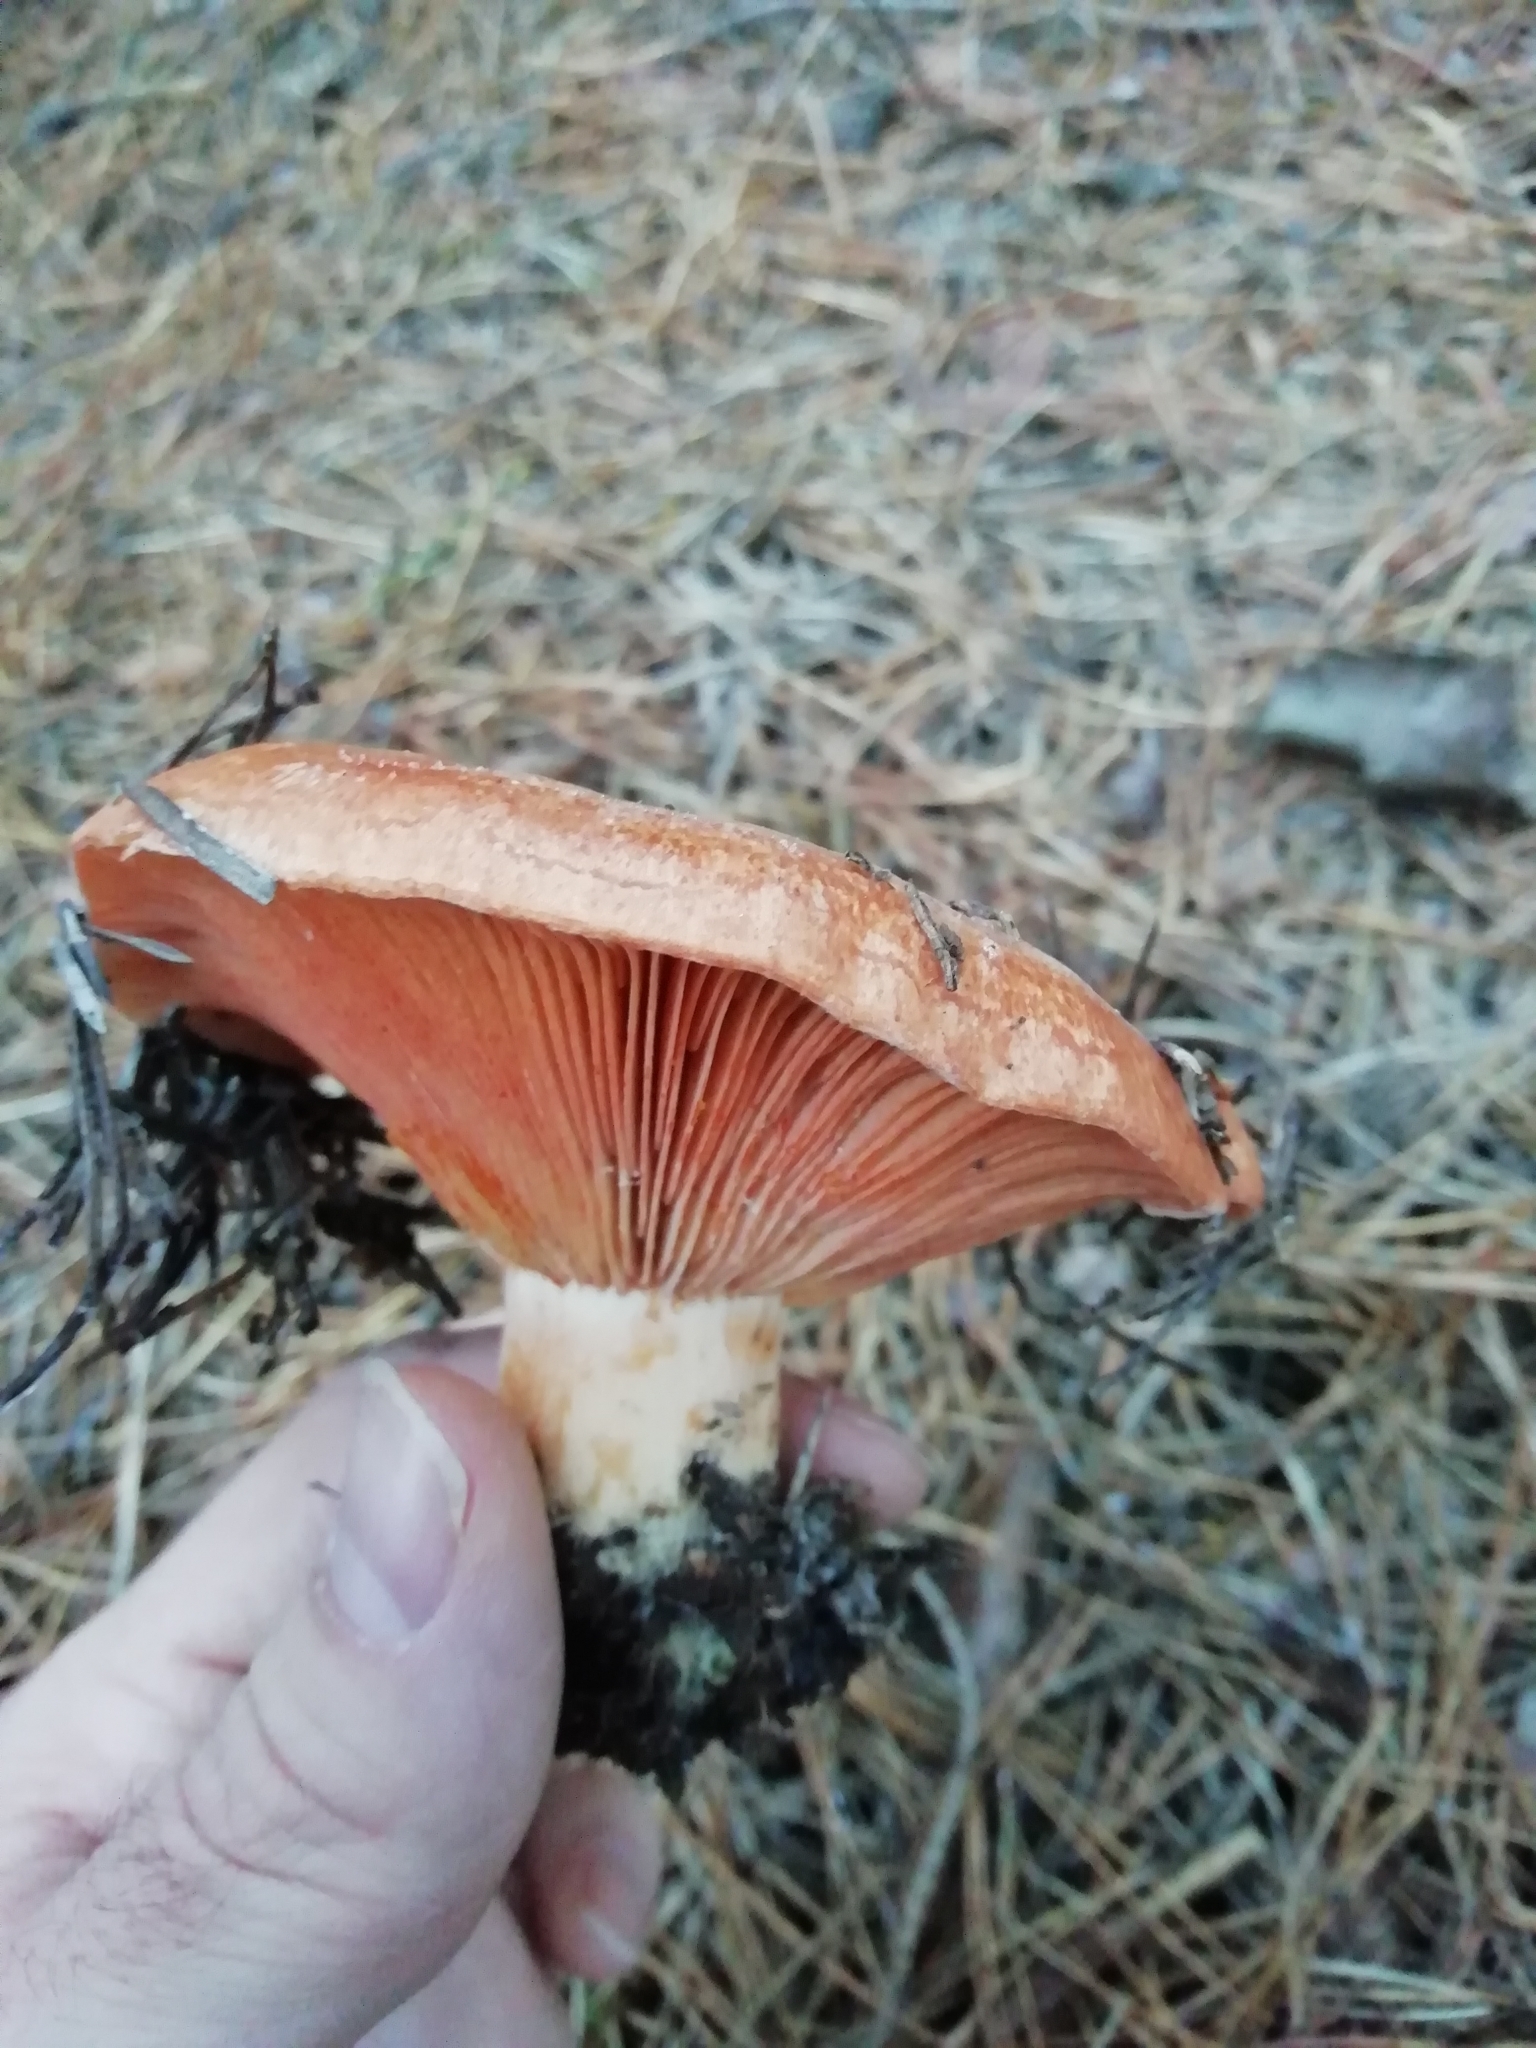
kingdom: Fungi
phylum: Basidiomycota
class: Agaricomycetes
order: Russulales
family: Russulaceae
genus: Lactarius
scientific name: Lactarius deliciosus
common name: Saffron milk-cap
